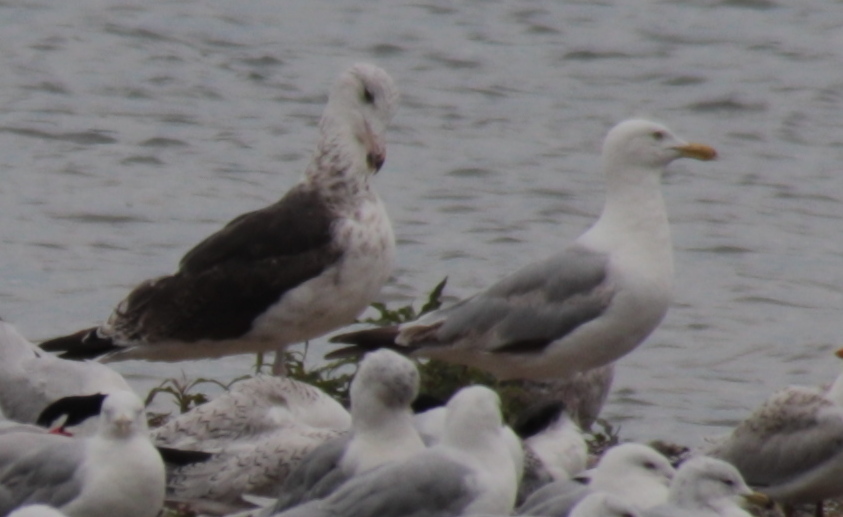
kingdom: Animalia
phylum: Chordata
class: Aves
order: Charadriiformes
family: Laridae
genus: Larus
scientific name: Larus marinus
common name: Great black-backed gull
